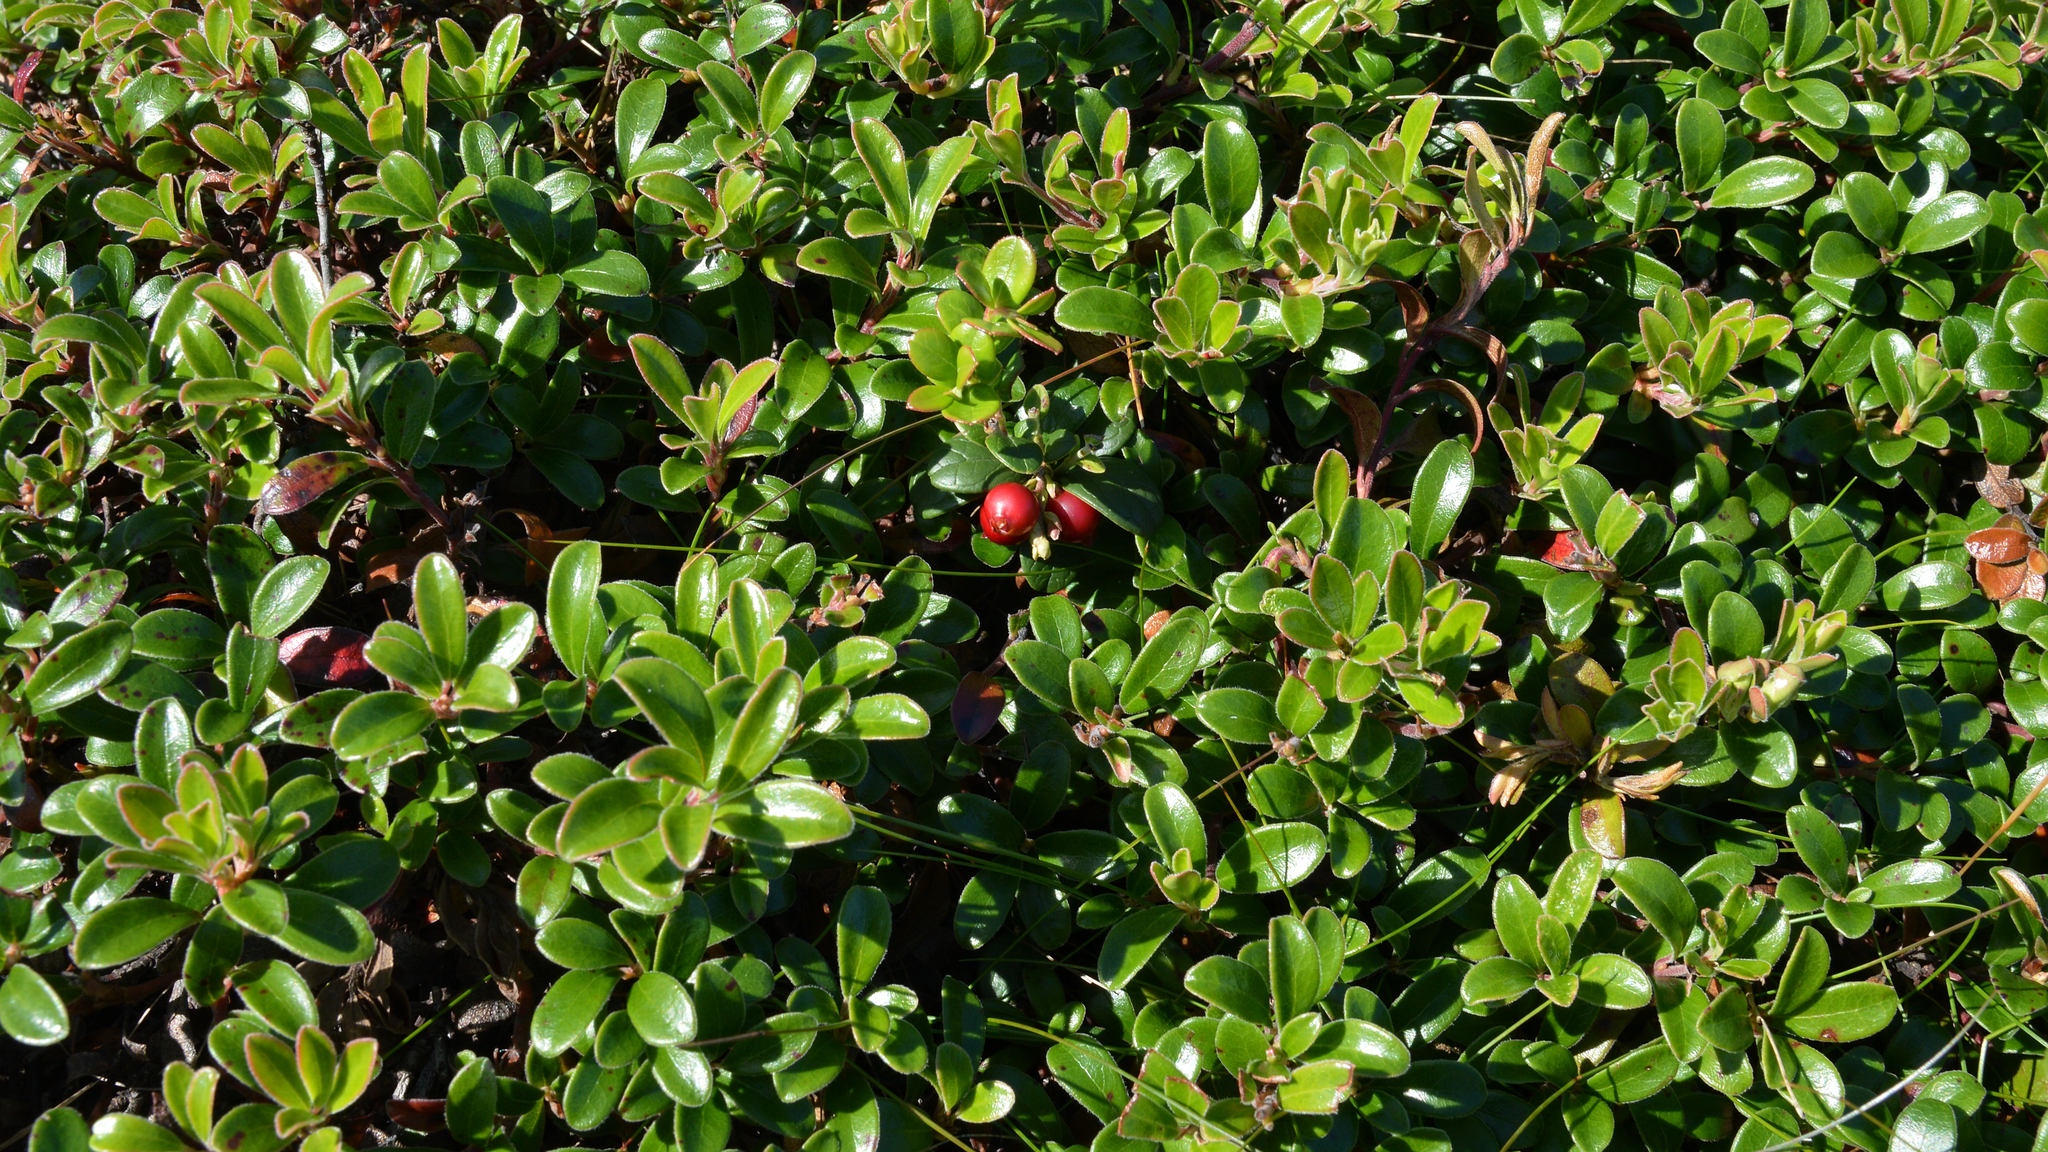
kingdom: Plantae
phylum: Tracheophyta
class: Magnoliopsida
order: Ericales
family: Ericaceae
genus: Arctostaphylos
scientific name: Arctostaphylos uva-ursi
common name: Bearberry
